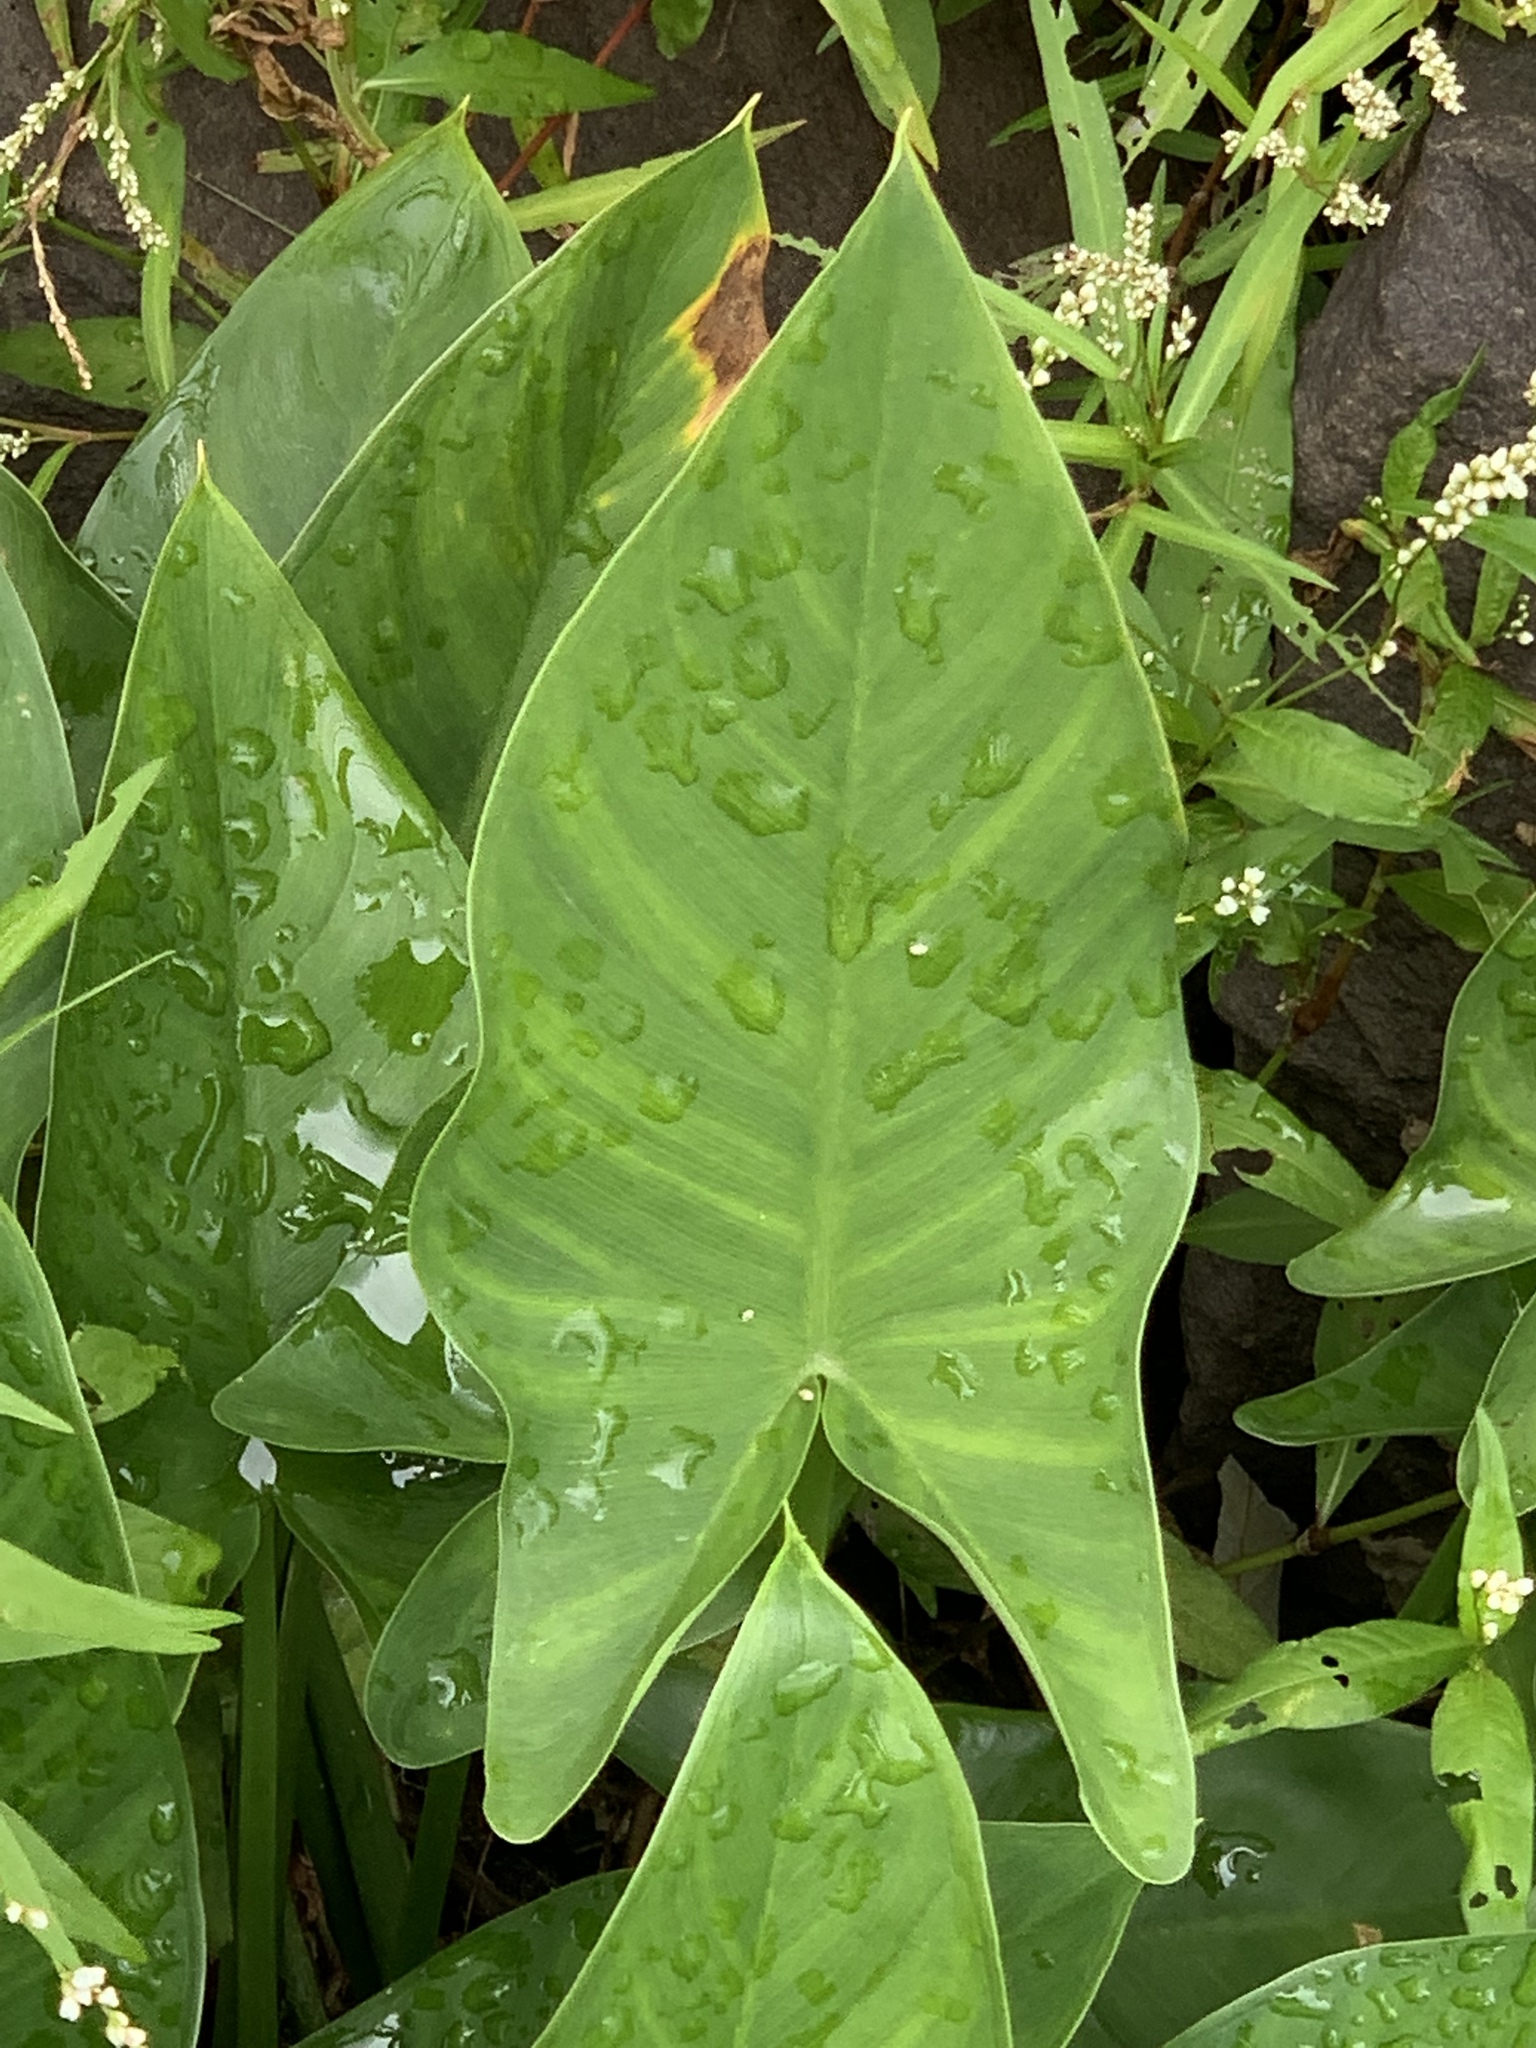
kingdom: Plantae
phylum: Tracheophyta
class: Liliopsida
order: Alismatales
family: Araceae
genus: Peltandra
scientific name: Peltandra virginica
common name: Arrow arum
